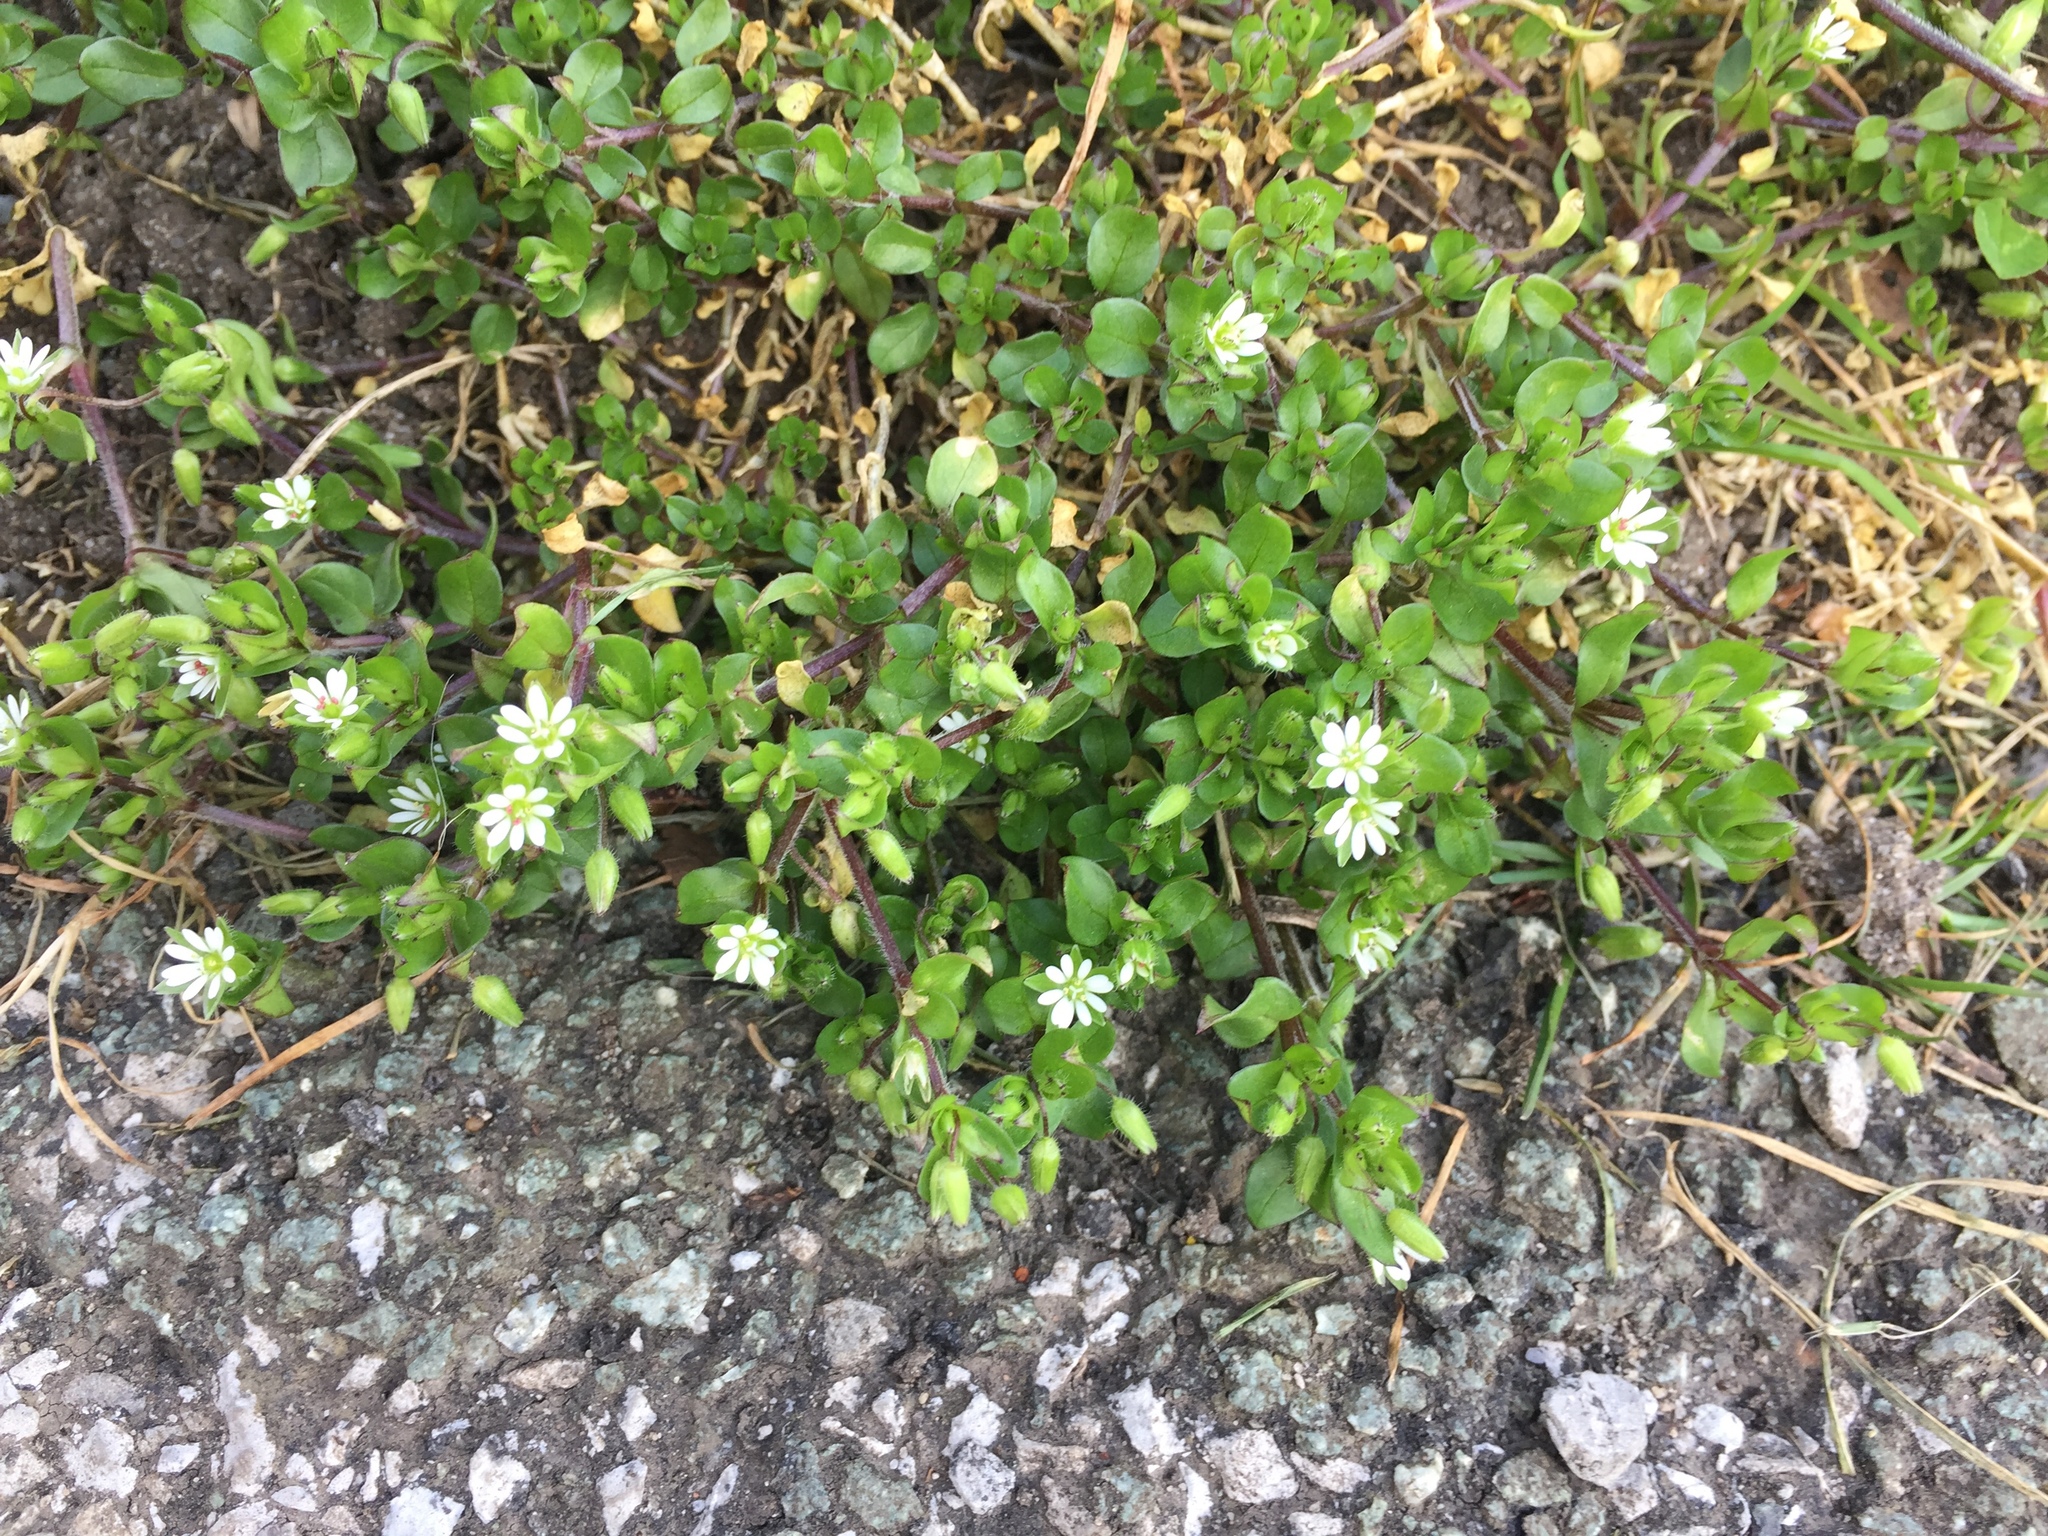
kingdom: Plantae
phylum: Tracheophyta
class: Magnoliopsida
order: Caryophyllales
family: Caryophyllaceae
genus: Stellaria
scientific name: Stellaria media
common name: Common chickweed
